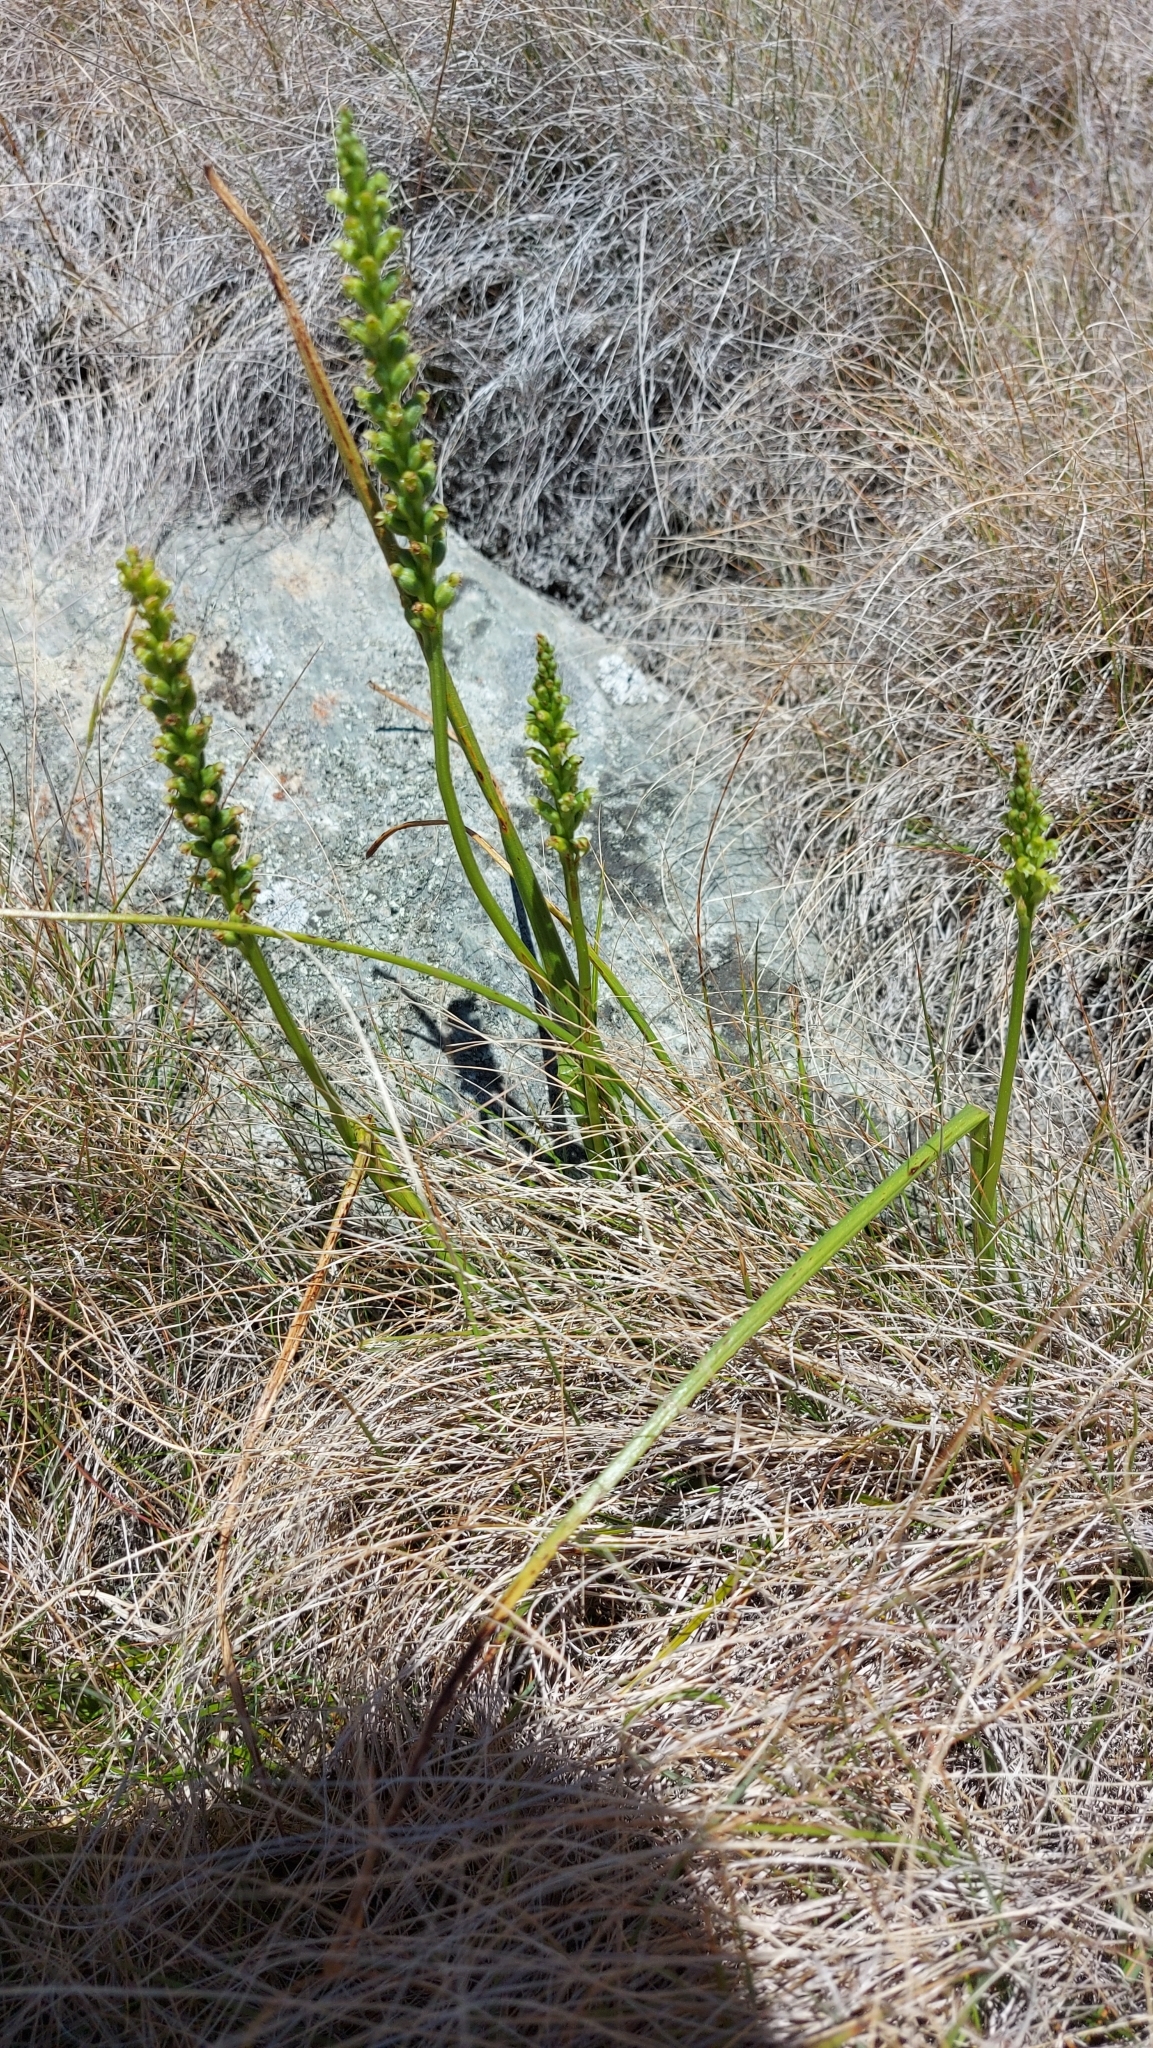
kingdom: Plantae
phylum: Tracheophyta
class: Liliopsida
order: Asparagales
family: Orchidaceae
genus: Microtis
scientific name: Microtis unifolia
